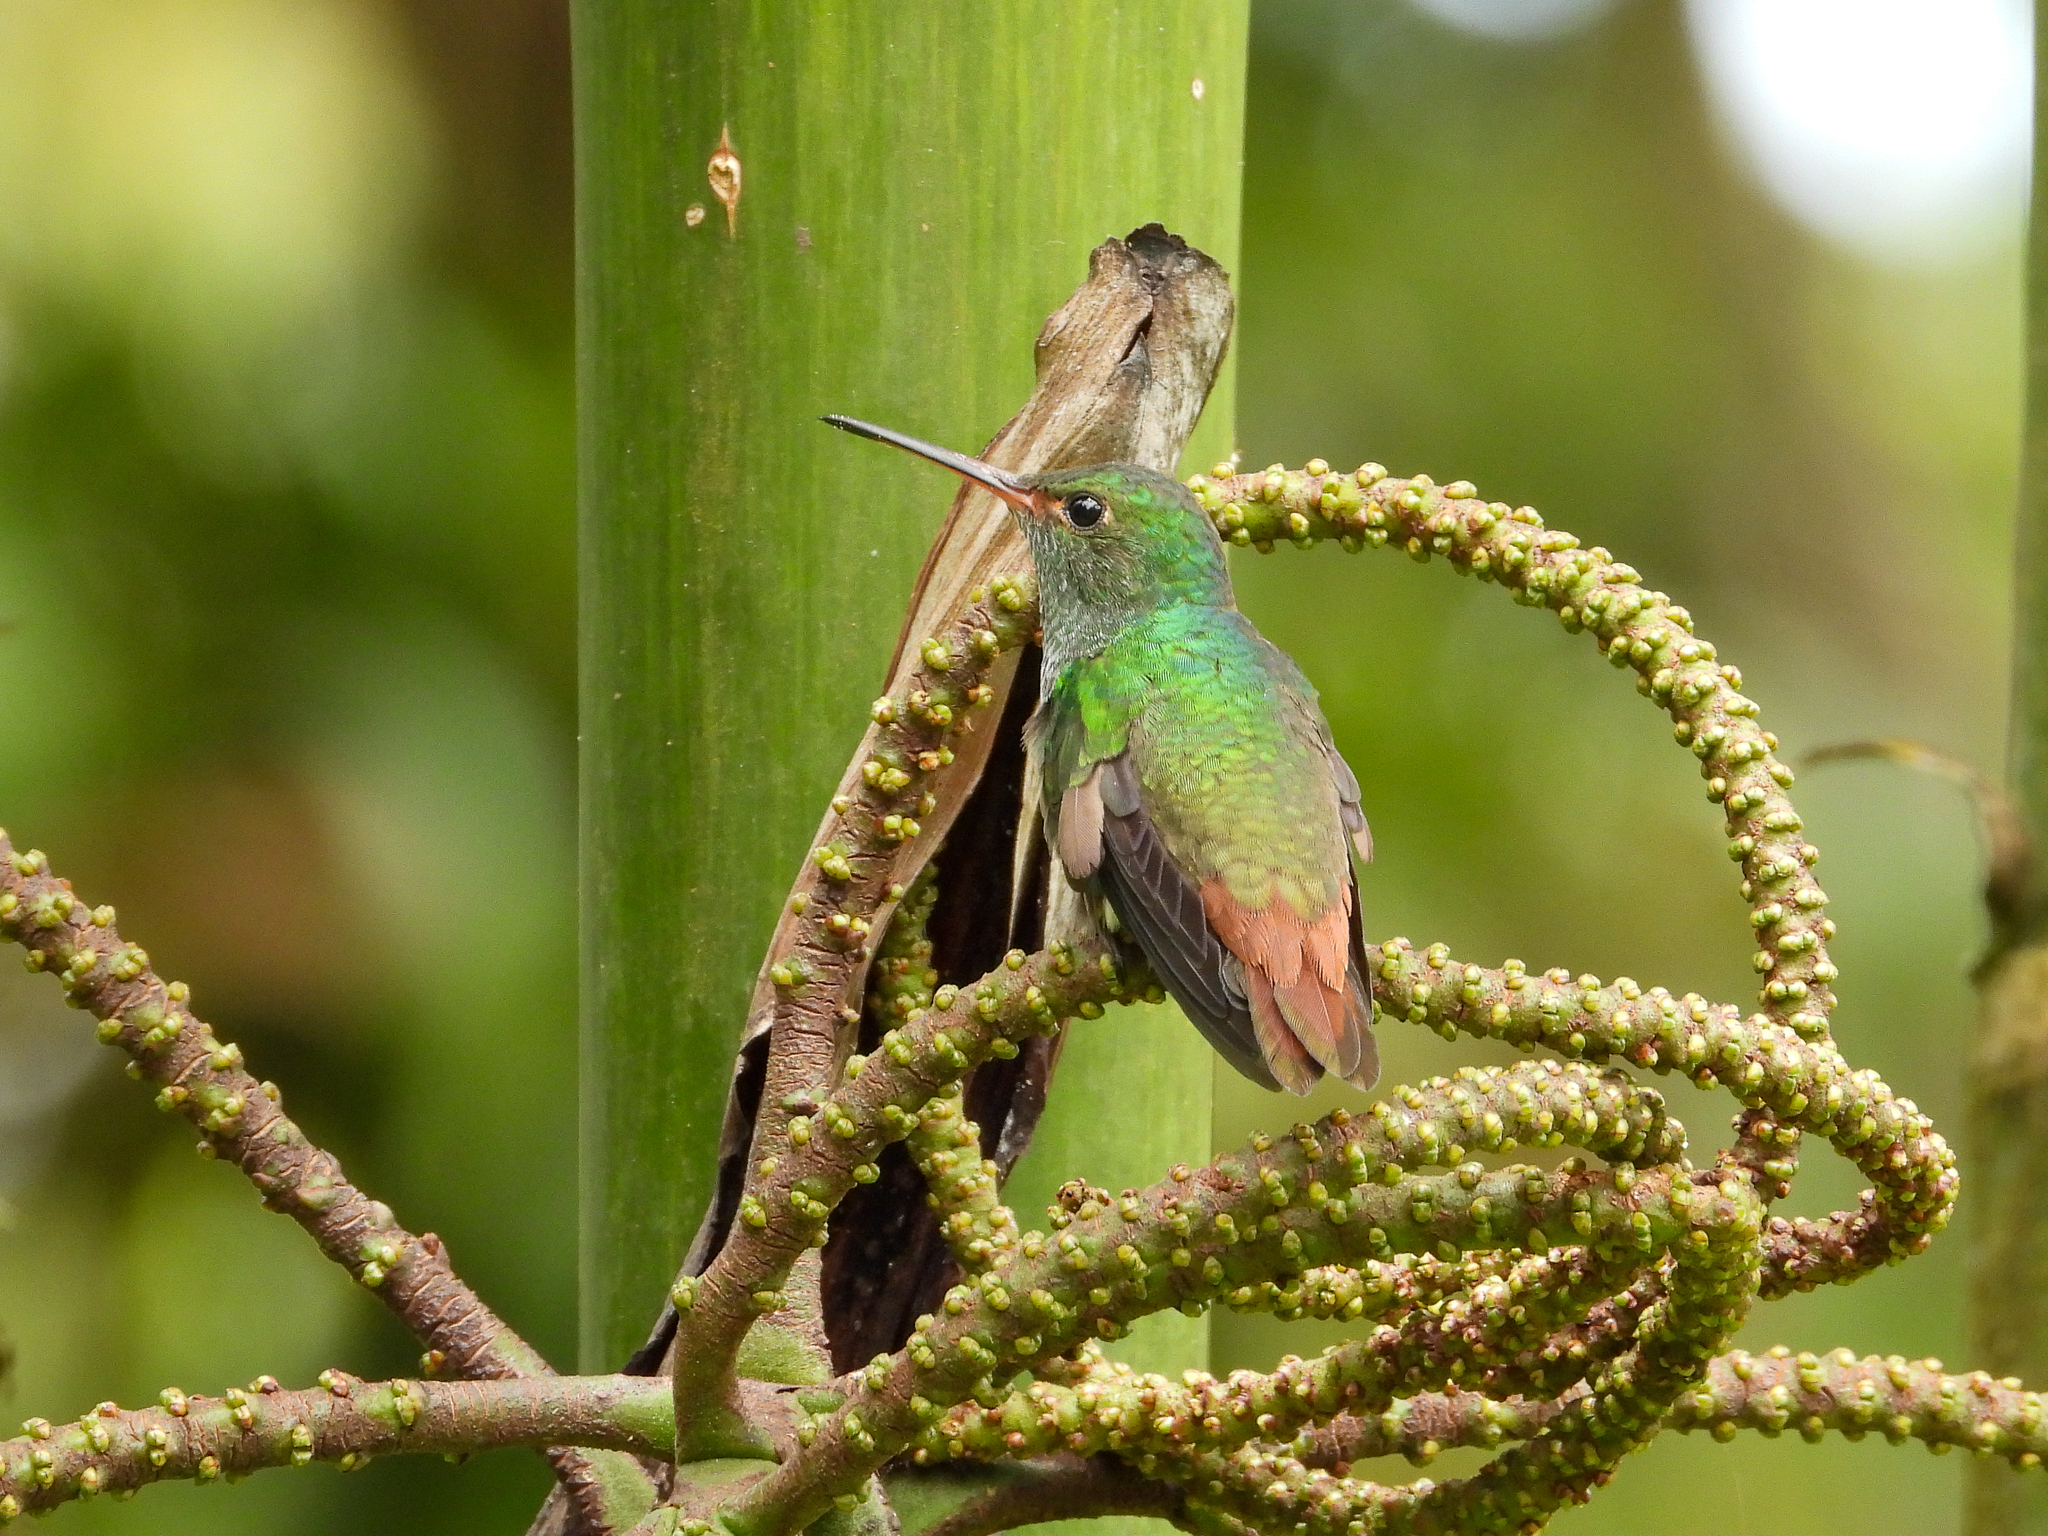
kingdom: Animalia
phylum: Chordata
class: Aves
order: Apodiformes
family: Trochilidae
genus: Amazilia
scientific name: Amazilia tzacatl
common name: Rufous-tailed hummingbird
